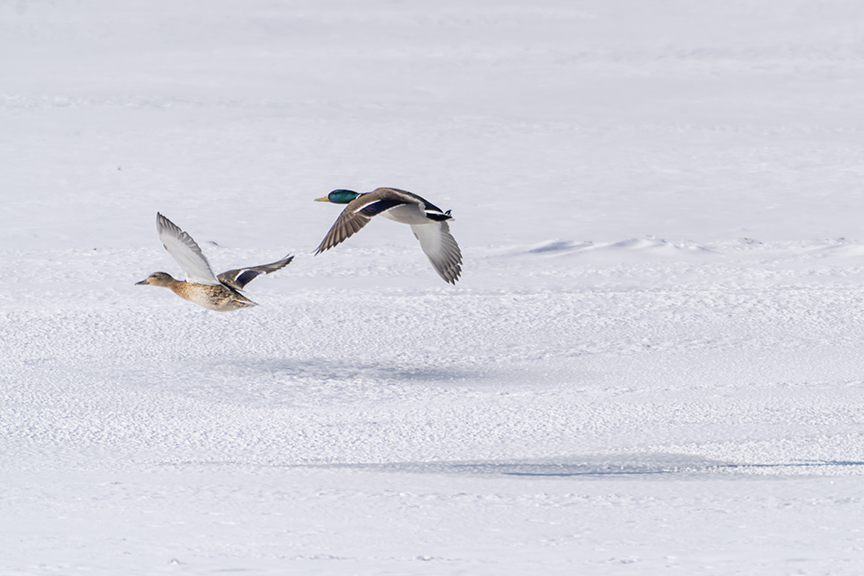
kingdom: Animalia
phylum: Chordata
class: Aves
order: Anseriformes
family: Anatidae
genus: Anas
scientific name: Anas platyrhynchos
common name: Mallard
